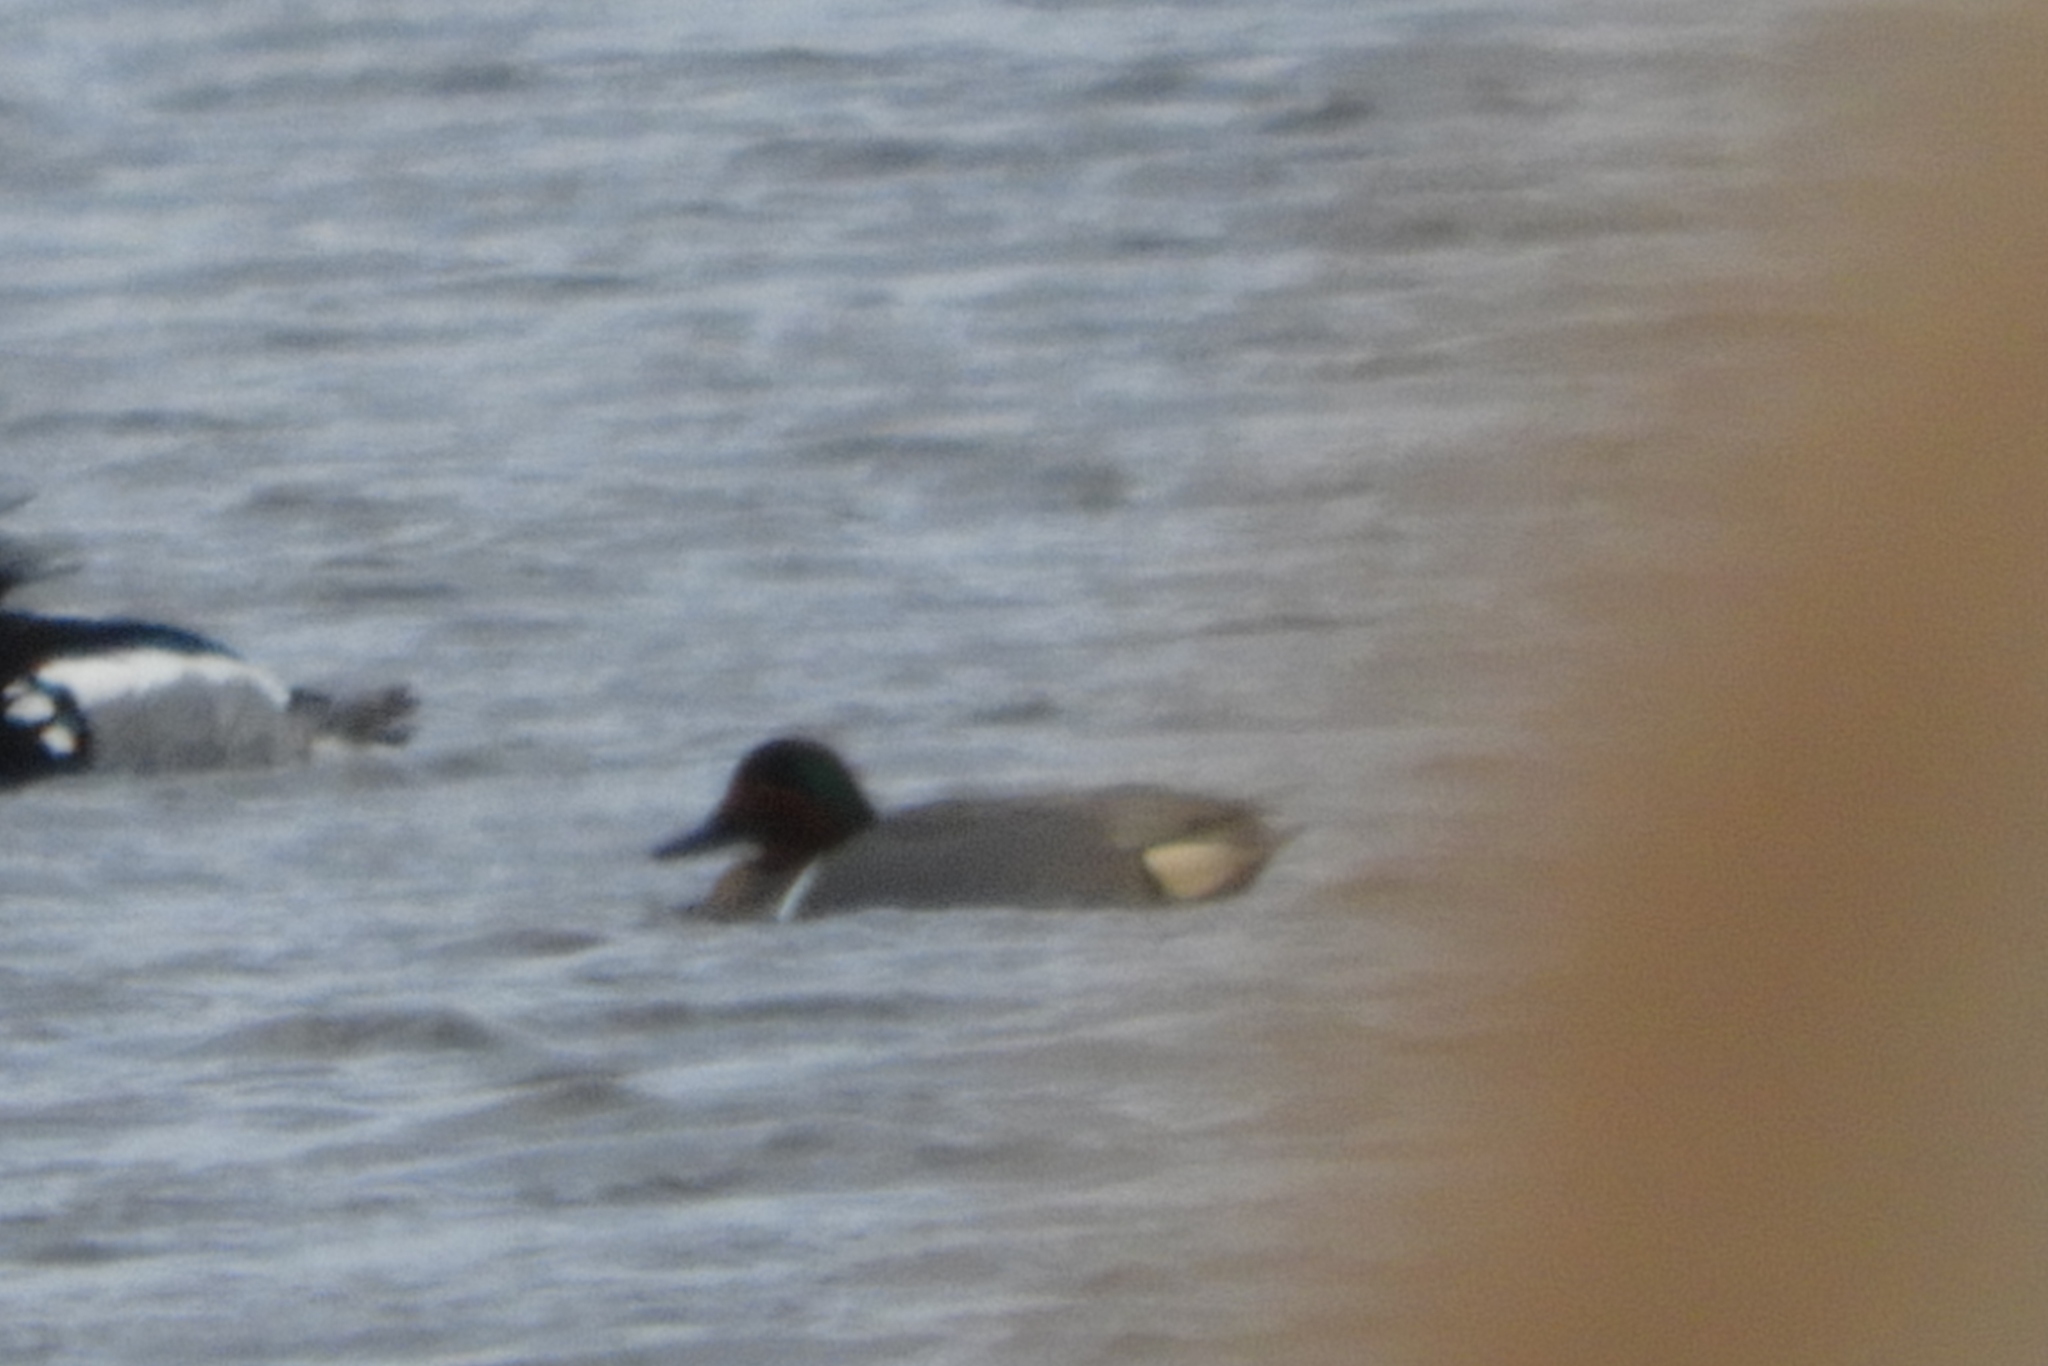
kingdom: Animalia
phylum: Chordata
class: Aves
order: Anseriformes
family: Anatidae
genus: Anas
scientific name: Anas crecca
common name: Eurasian teal
